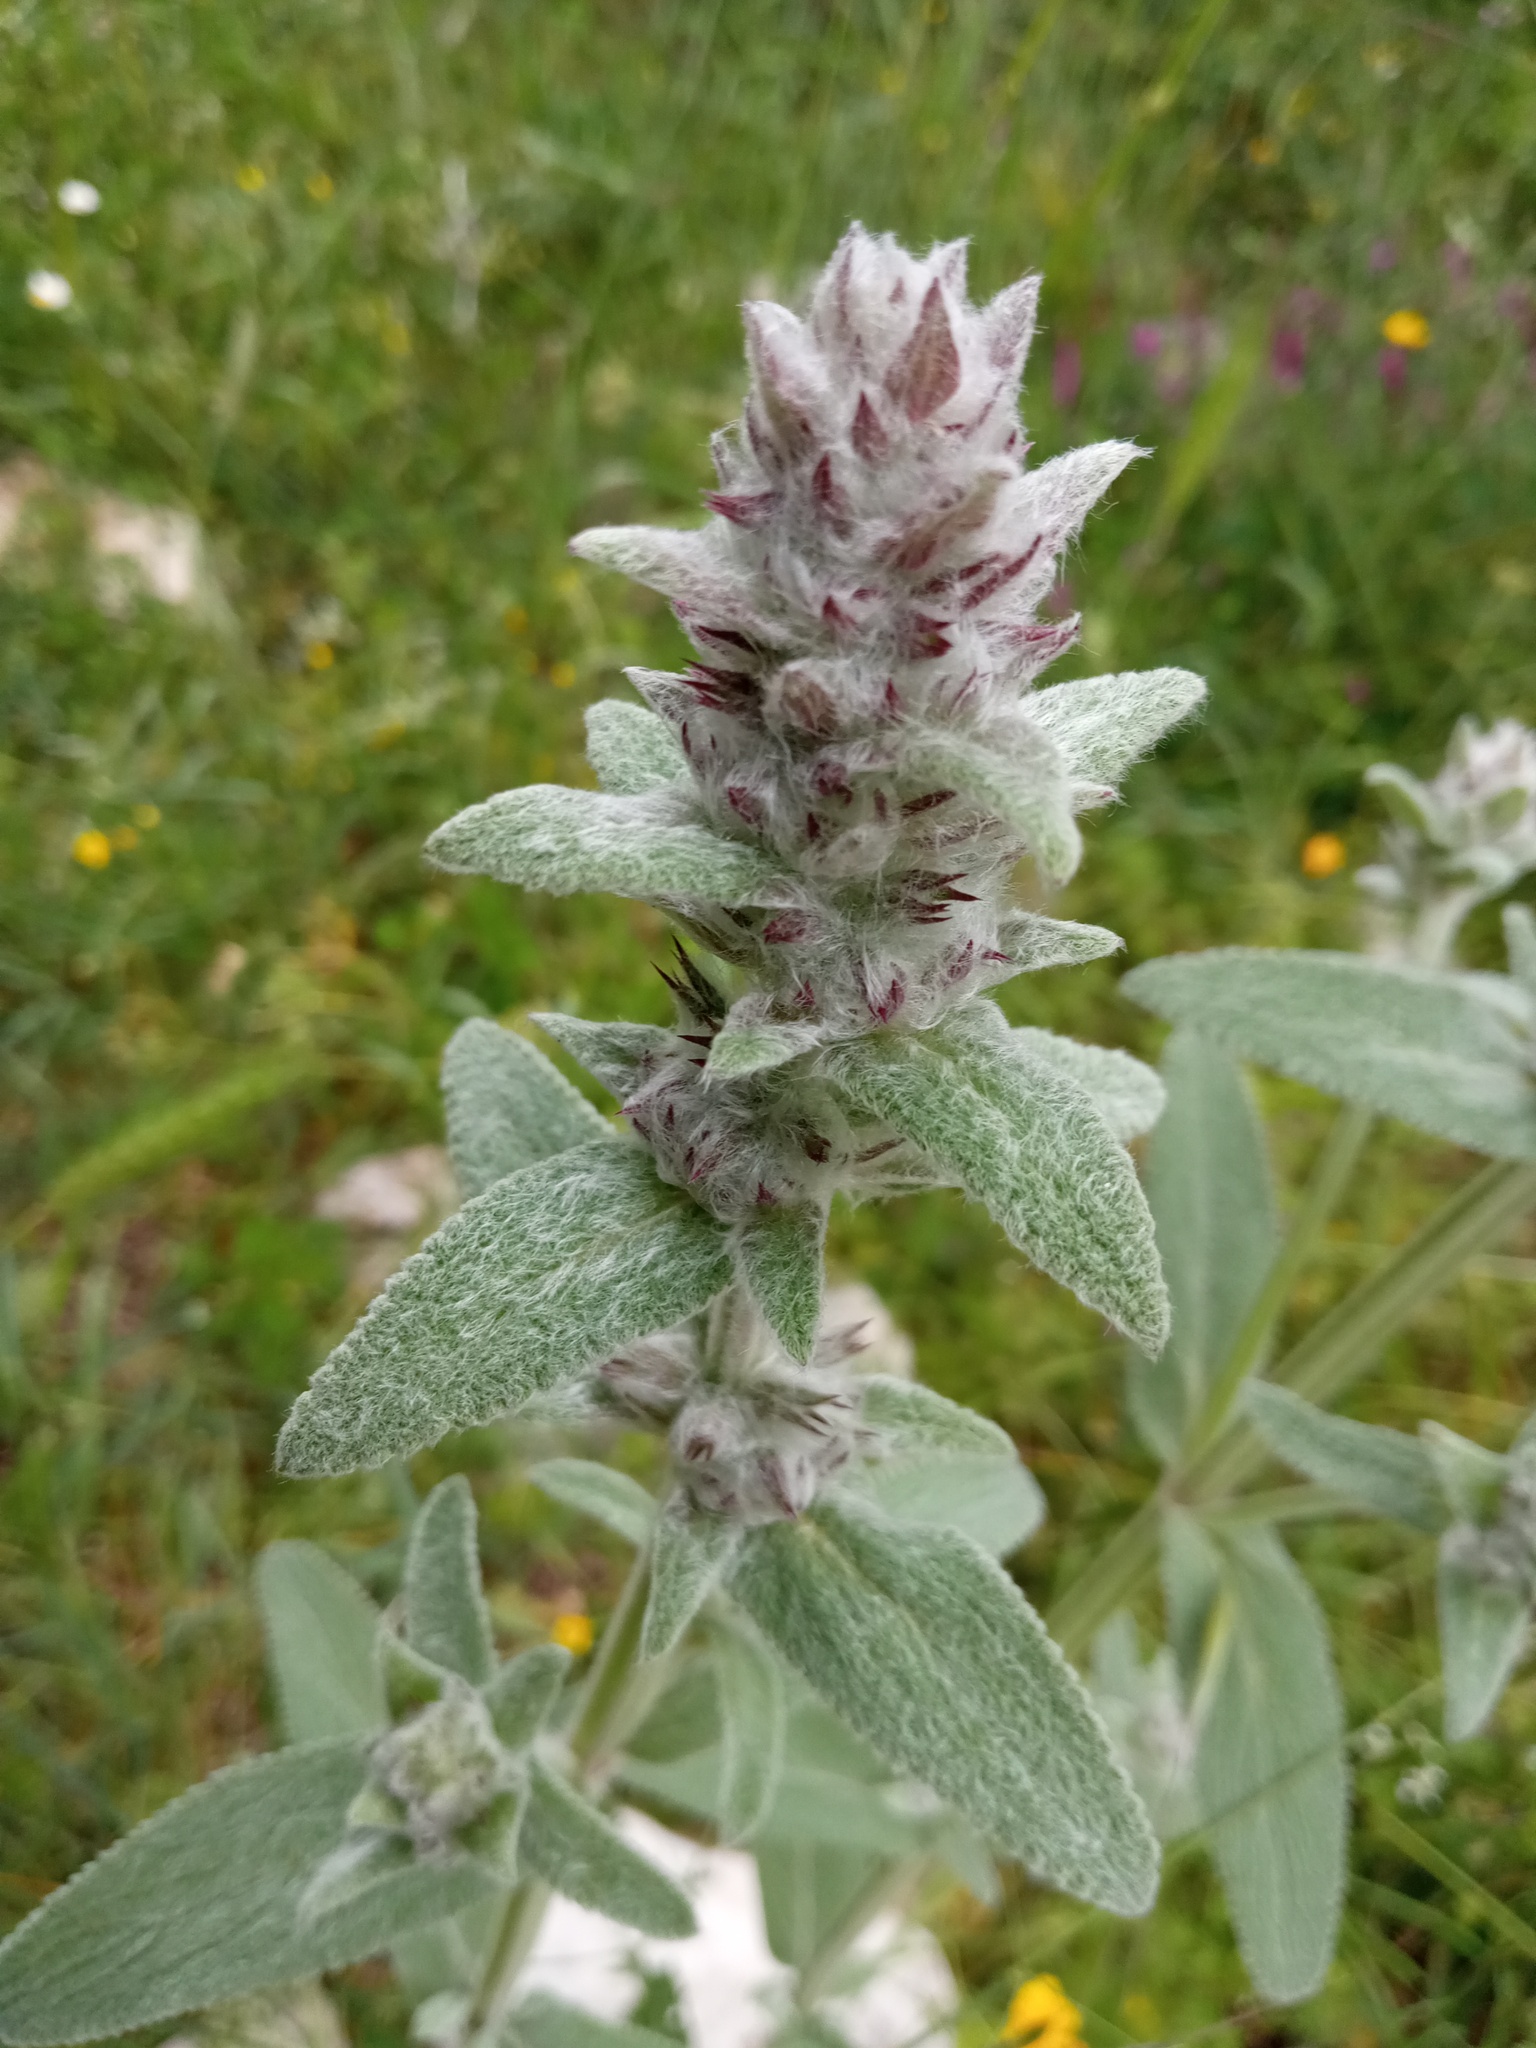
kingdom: Plantae
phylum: Tracheophyta
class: Magnoliopsida
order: Lamiales
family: Lamiaceae
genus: Stachys
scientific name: Stachys cretica
